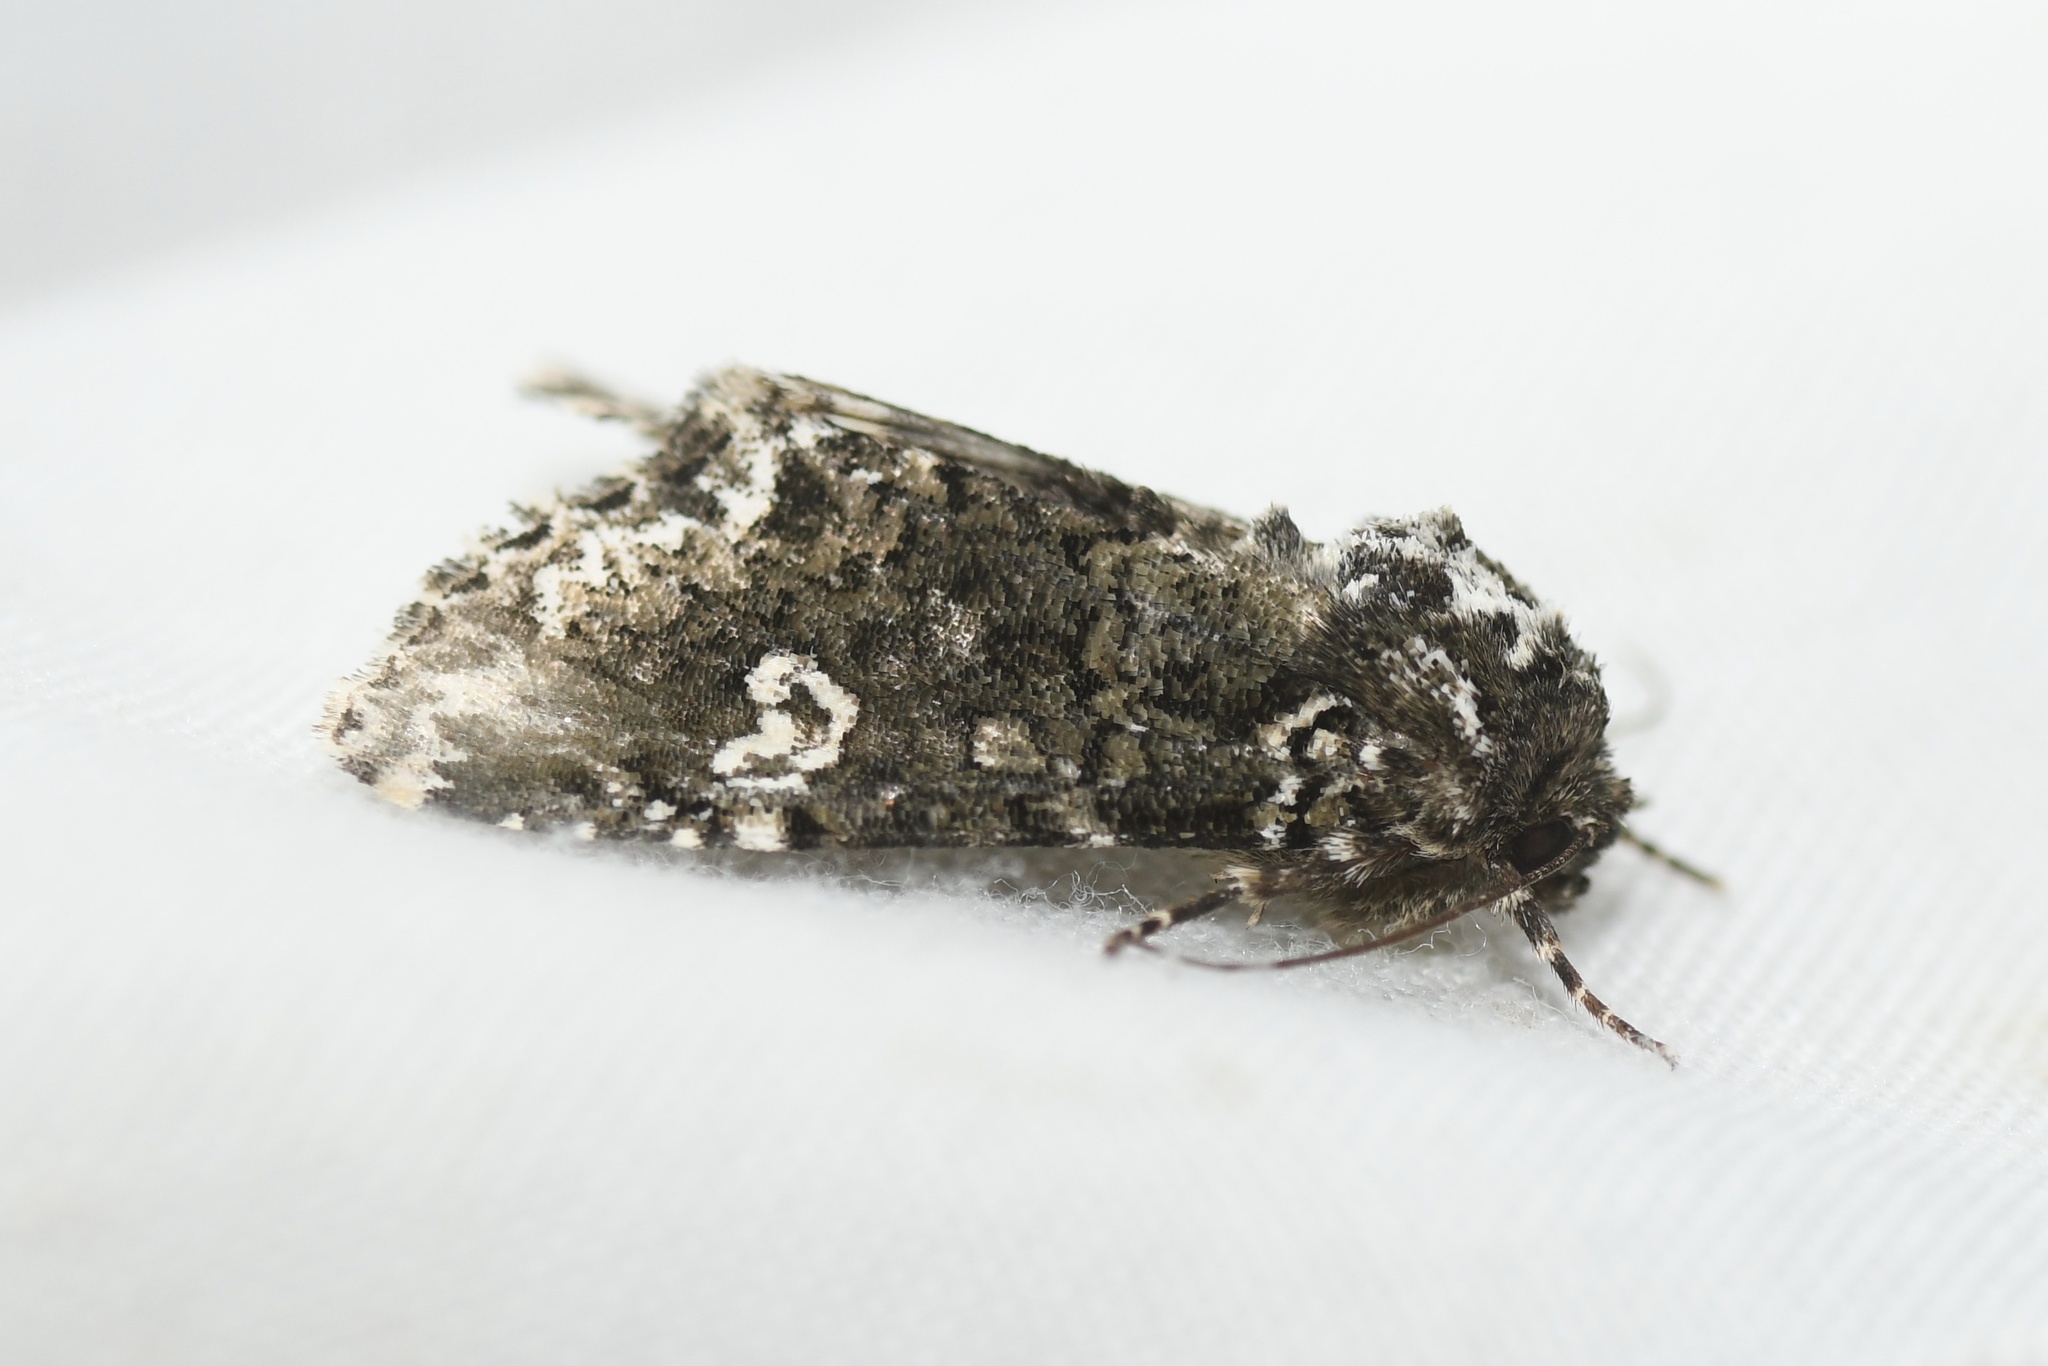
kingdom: Animalia
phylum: Arthropoda
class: Insecta
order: Lepidoptera
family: Noctuidae
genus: Melanchra
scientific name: Melanchra adjuncta
